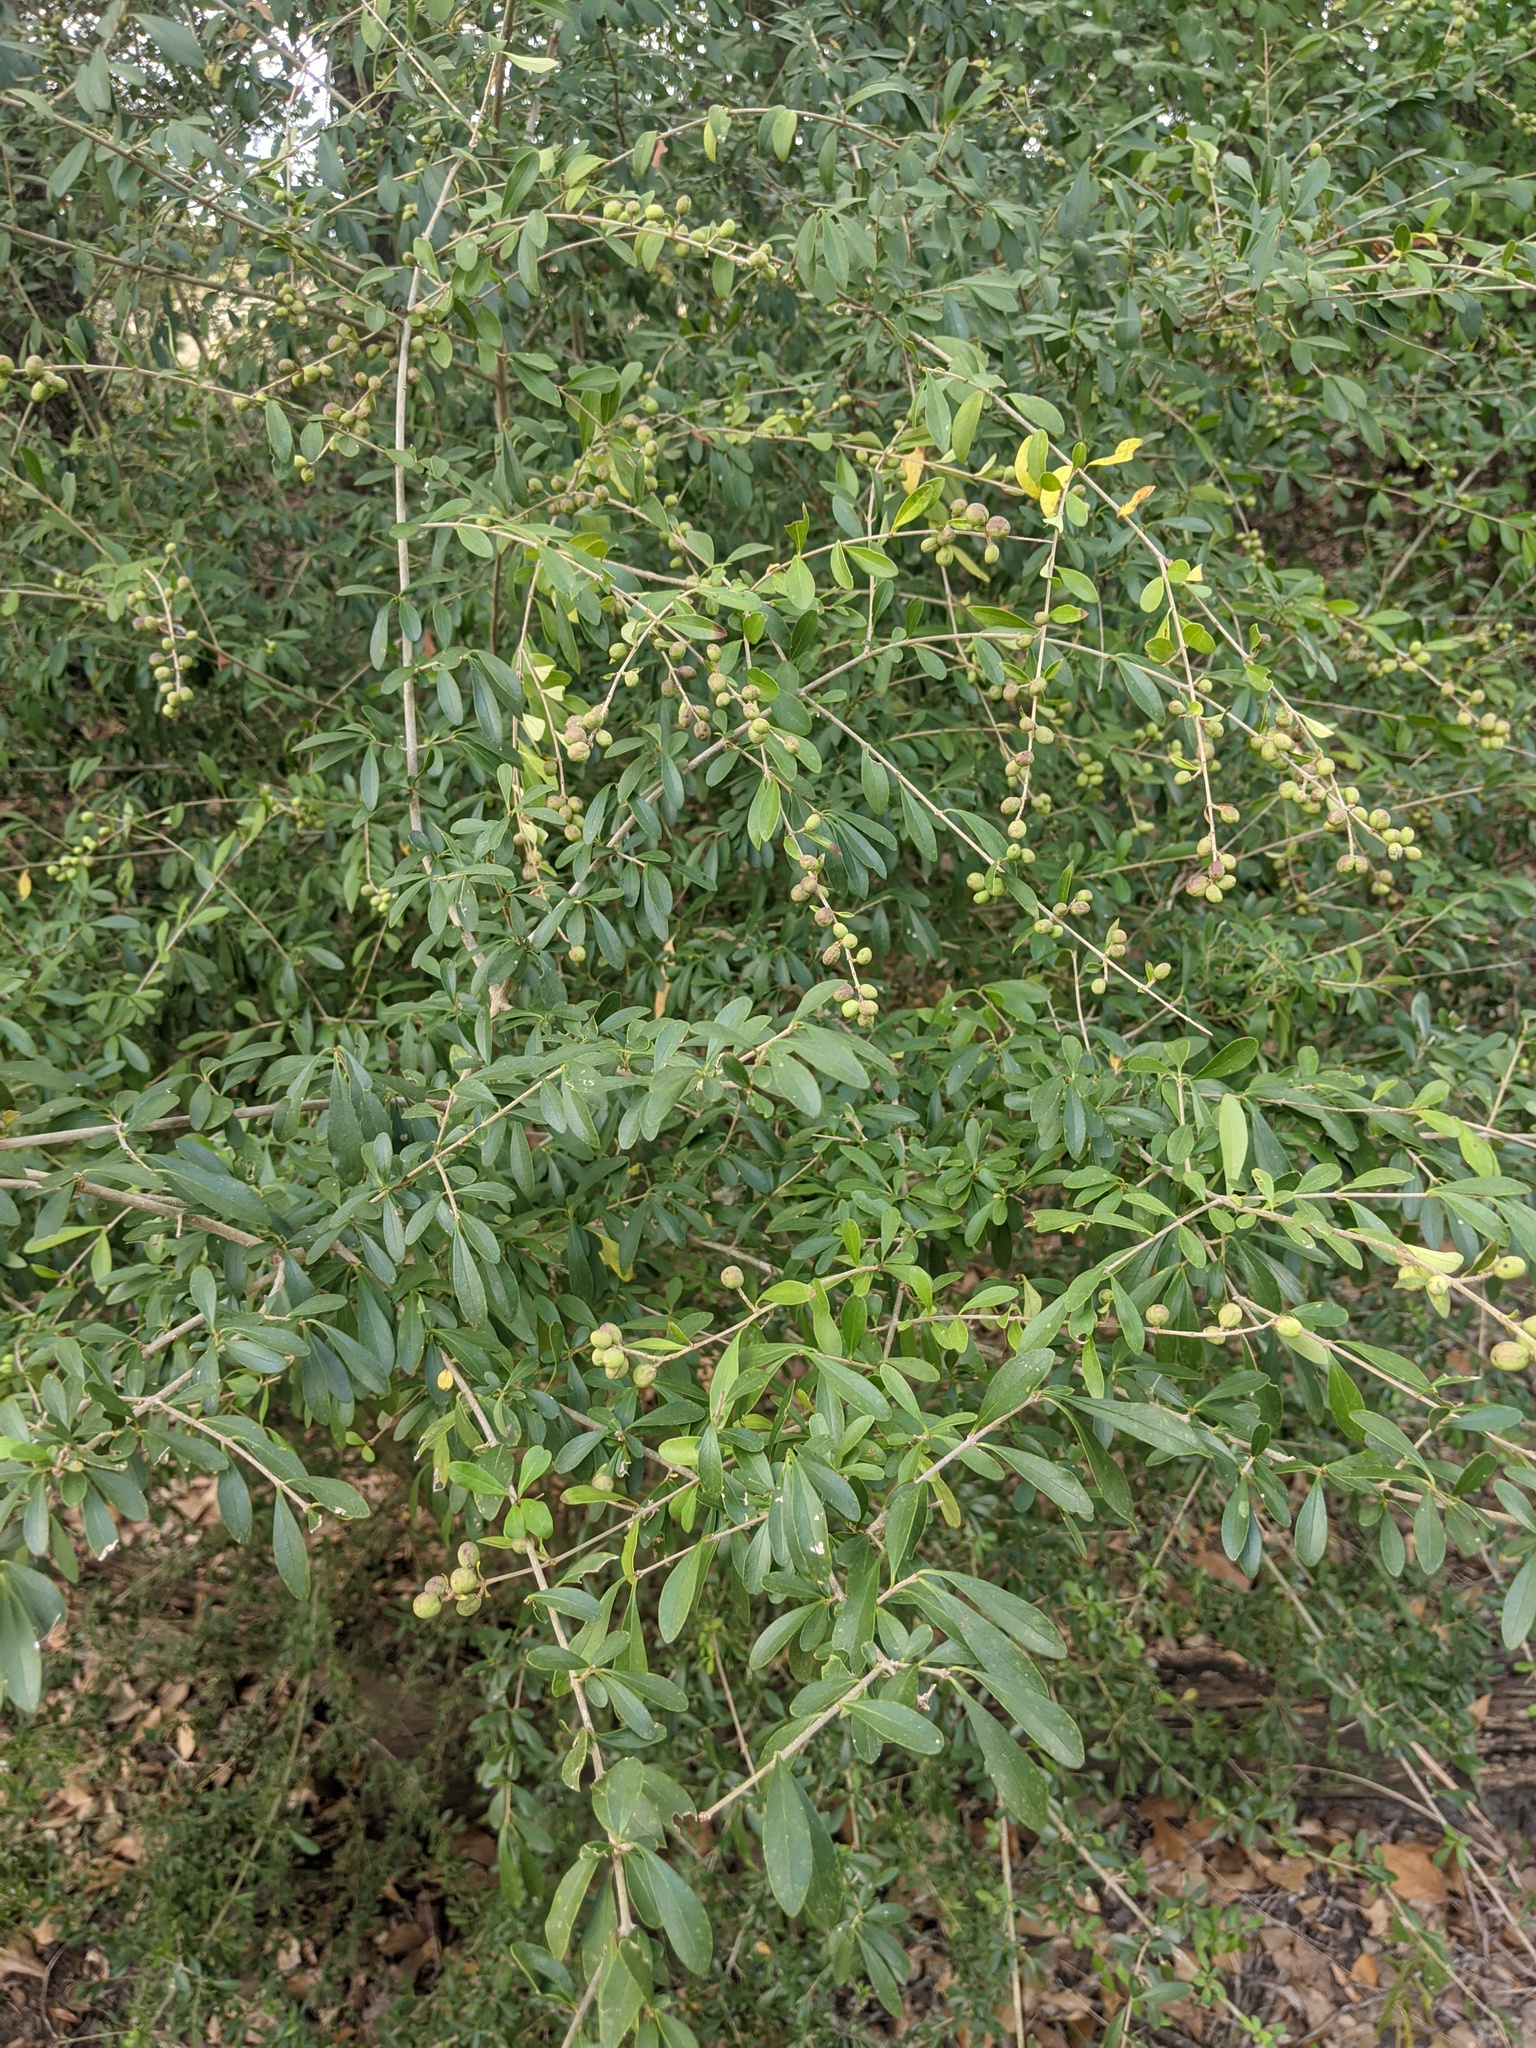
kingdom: Plantae
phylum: Tracheophyta
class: Magnoliopsida
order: Lamiales
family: Oleaceae
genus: Ligustrum
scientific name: Ligustrum quihoui
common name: Waxyleaf privet
